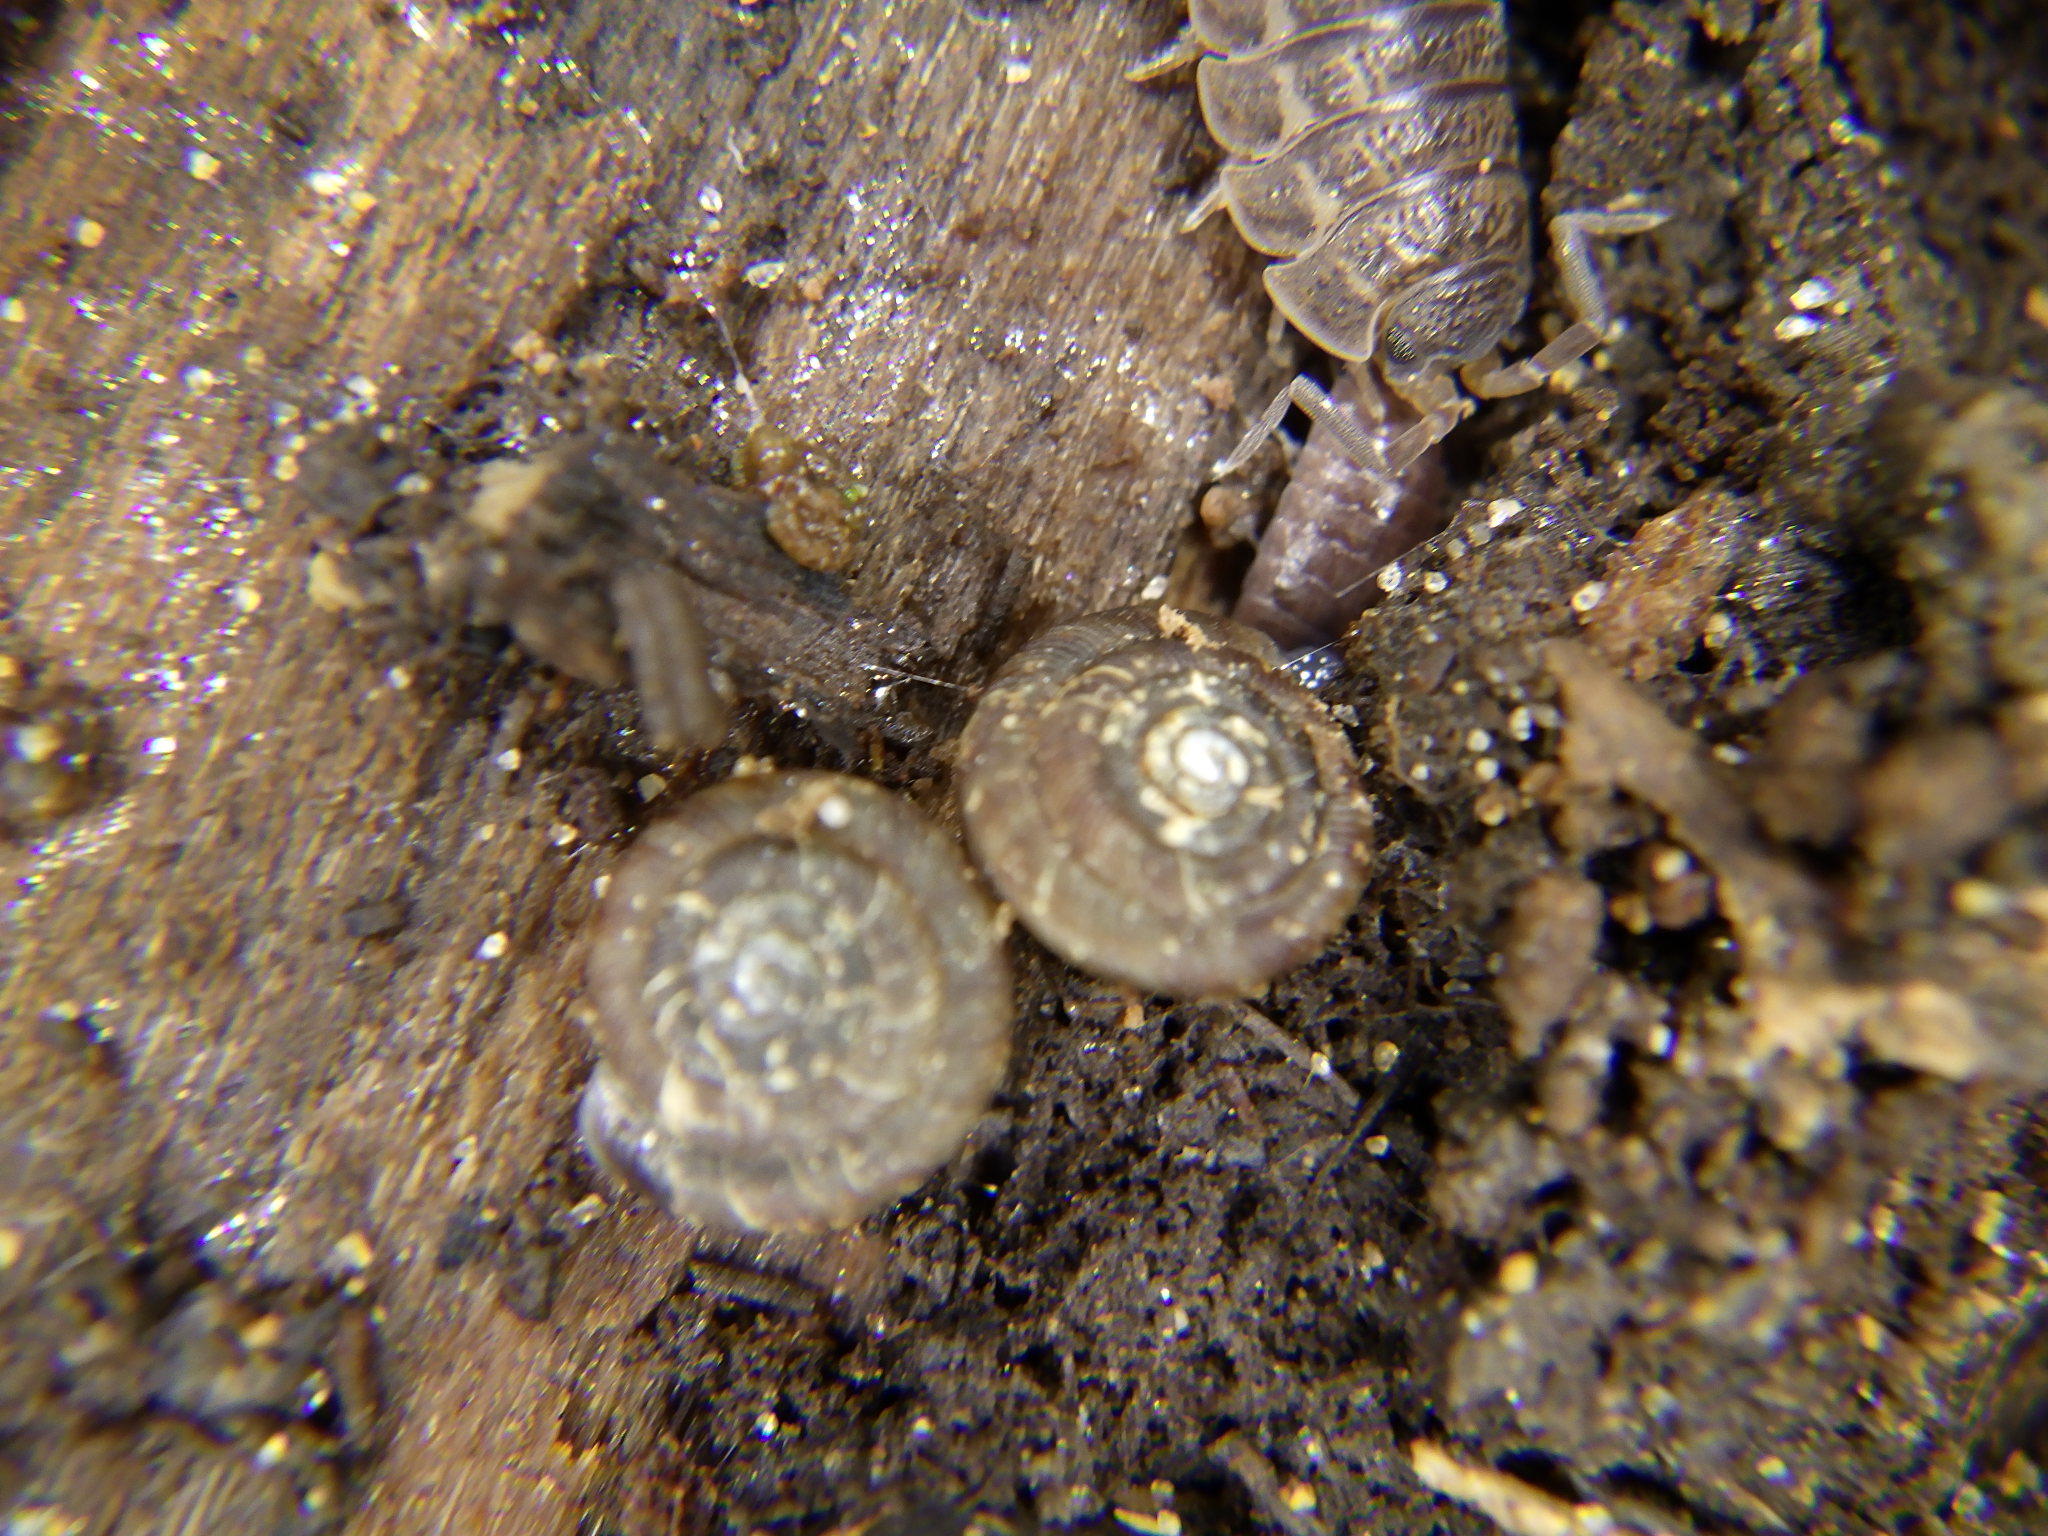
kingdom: Animalia
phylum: Mollusca
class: Gastropoda
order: Stylommatophora
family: Discidae
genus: Discus
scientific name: Discus rotundatus
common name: Rounded snail
